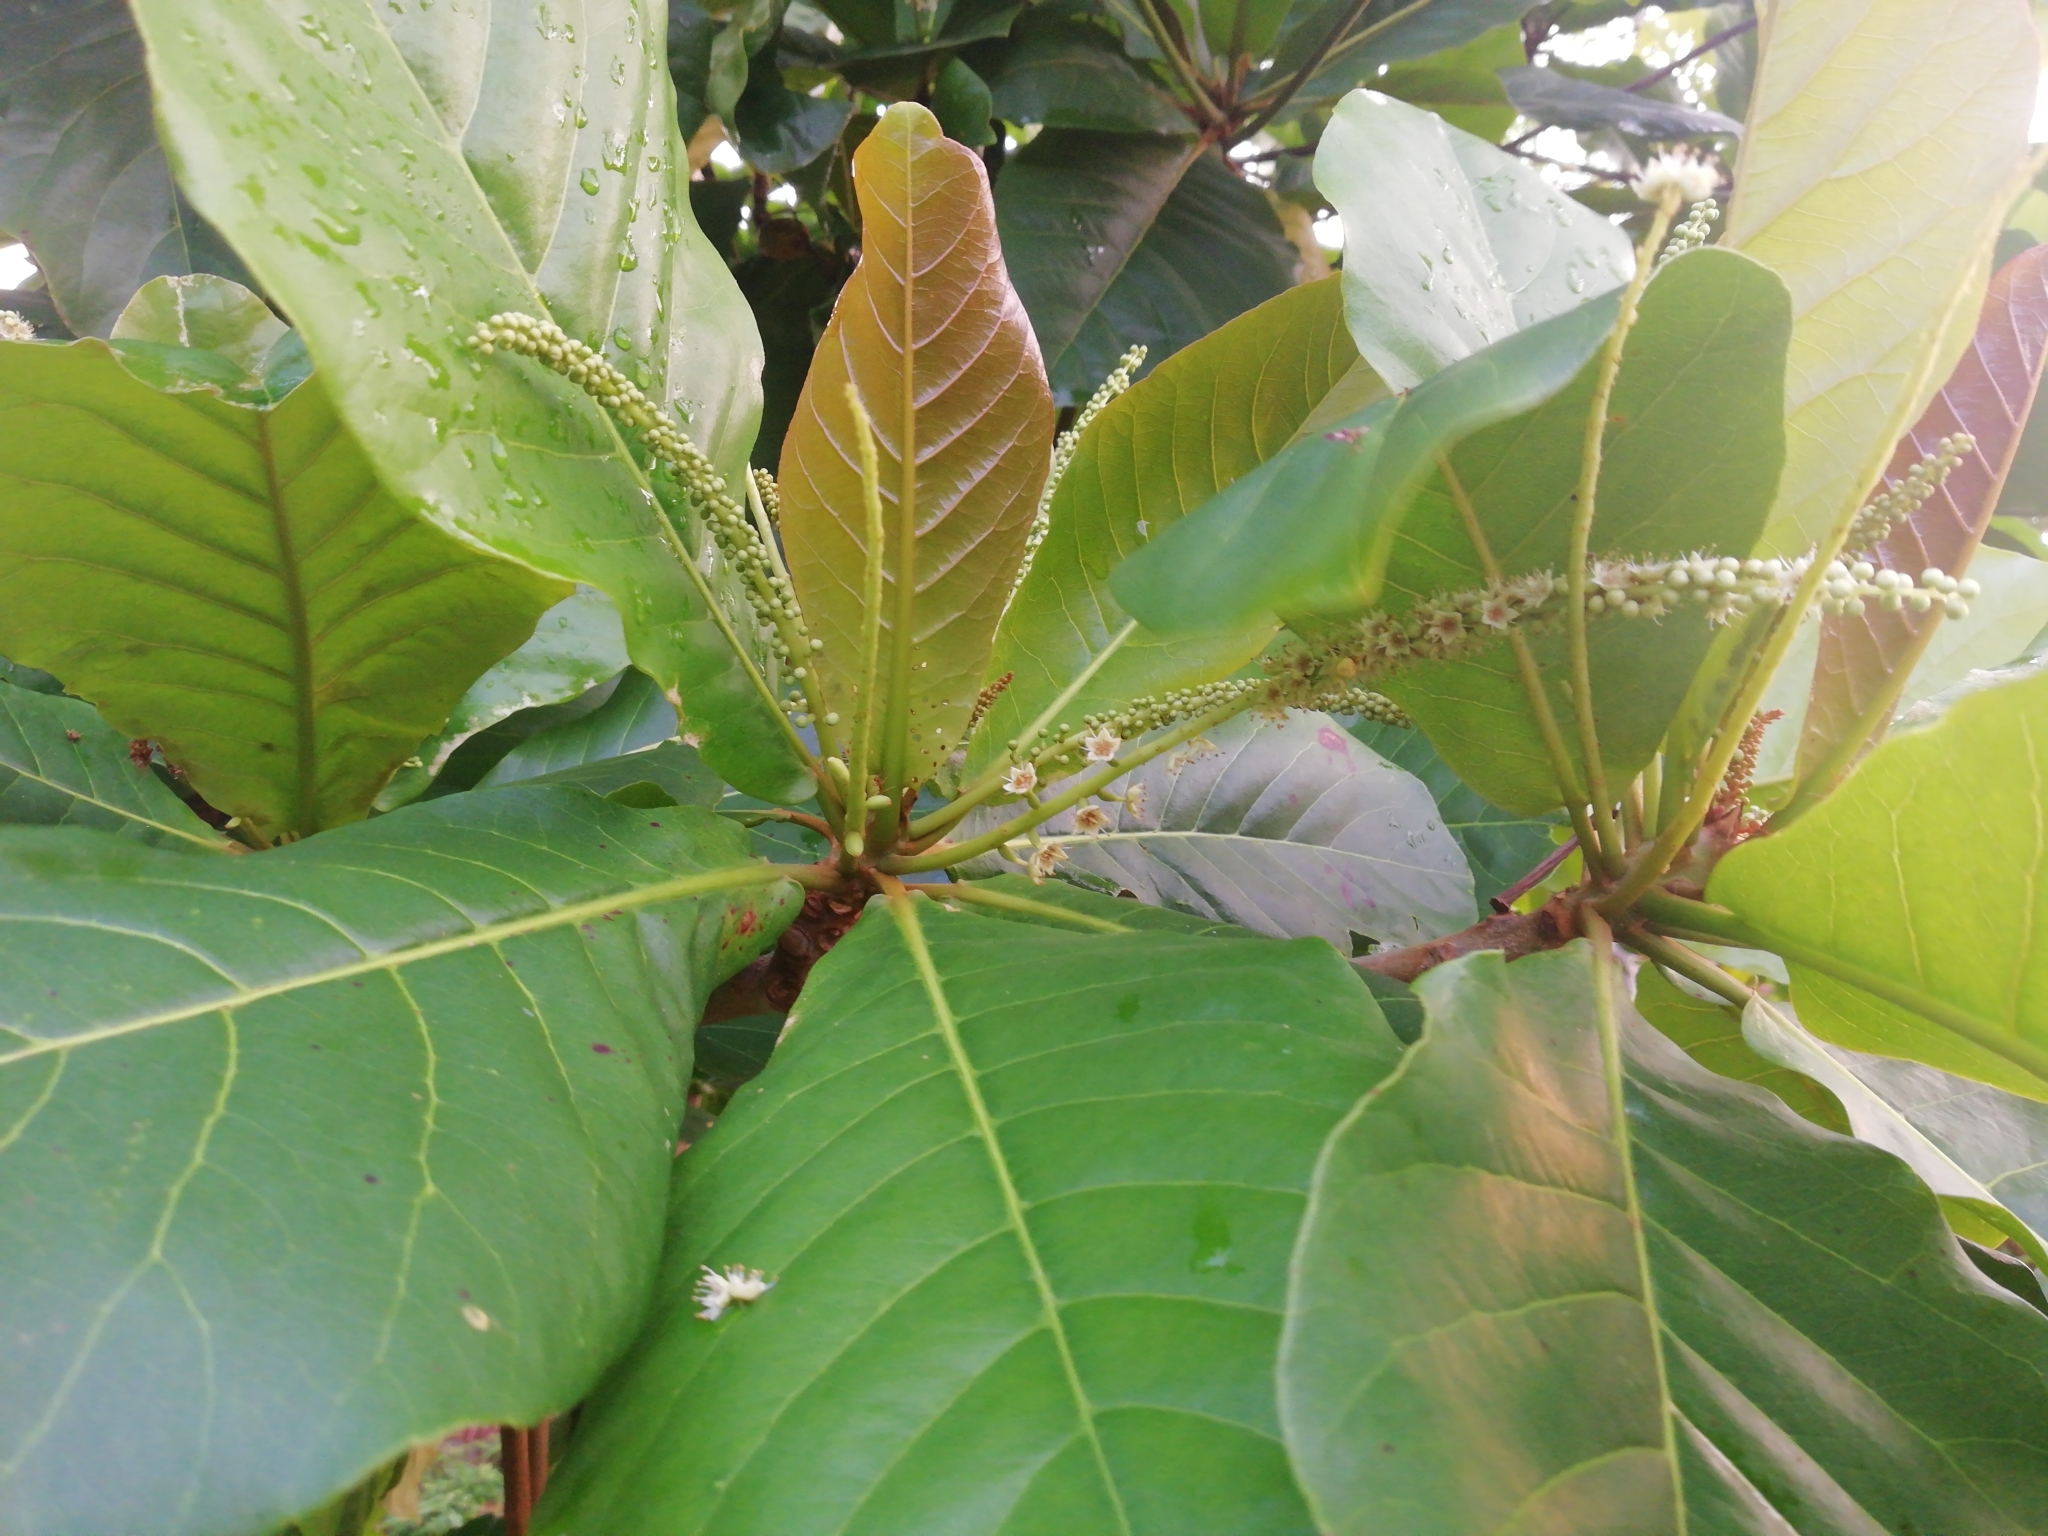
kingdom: Plantae
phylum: Tracheophyta
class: Magnoliopsida
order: Myrtales
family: Combretaceae
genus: Terminalia
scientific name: Terminalia catappa
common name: Tropical almond
